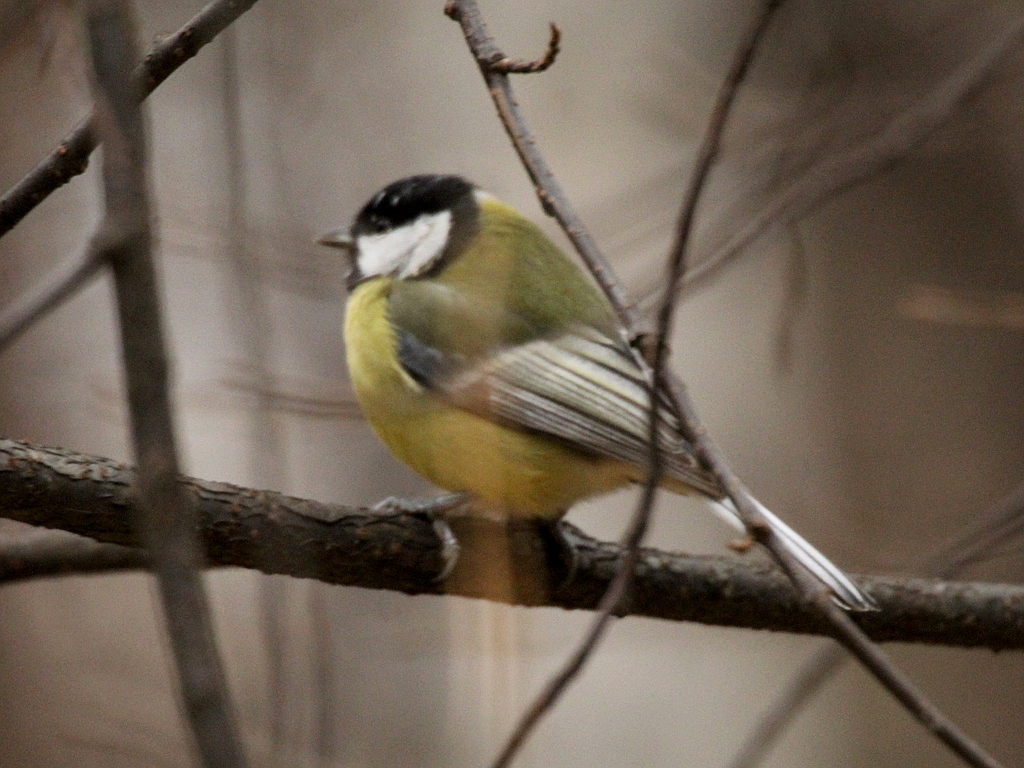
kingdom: Animalia
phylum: Chordata
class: Aves
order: Passeriformes
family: Paridae
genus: Parus
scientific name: Parus major
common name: Great tit
